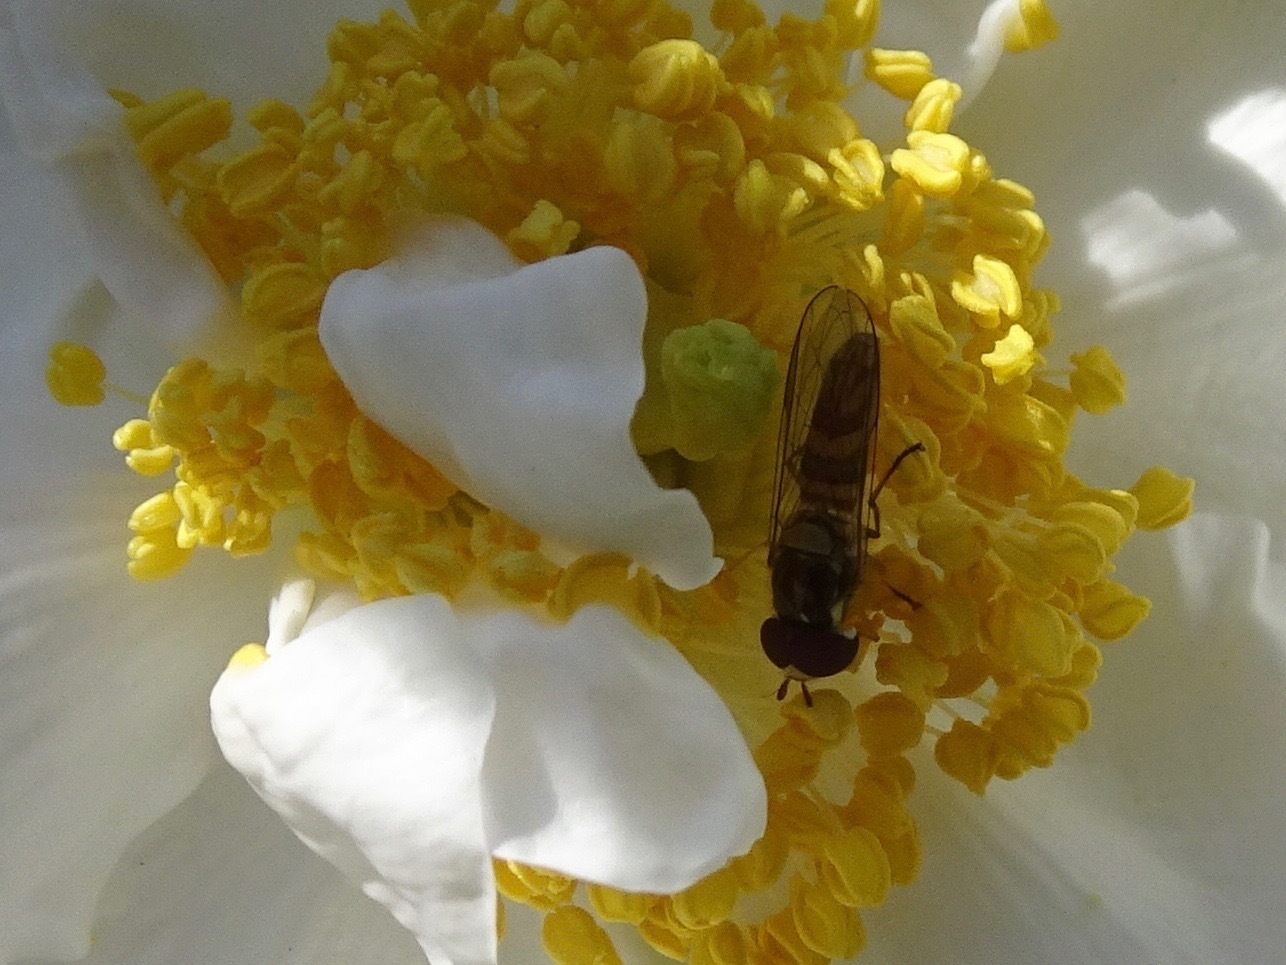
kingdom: Animalia
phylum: Arthropoda
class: Insecta
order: Diptera
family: Syrphidae
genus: Allograpta
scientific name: Allograpta obliqua
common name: Common oblique syrphid
